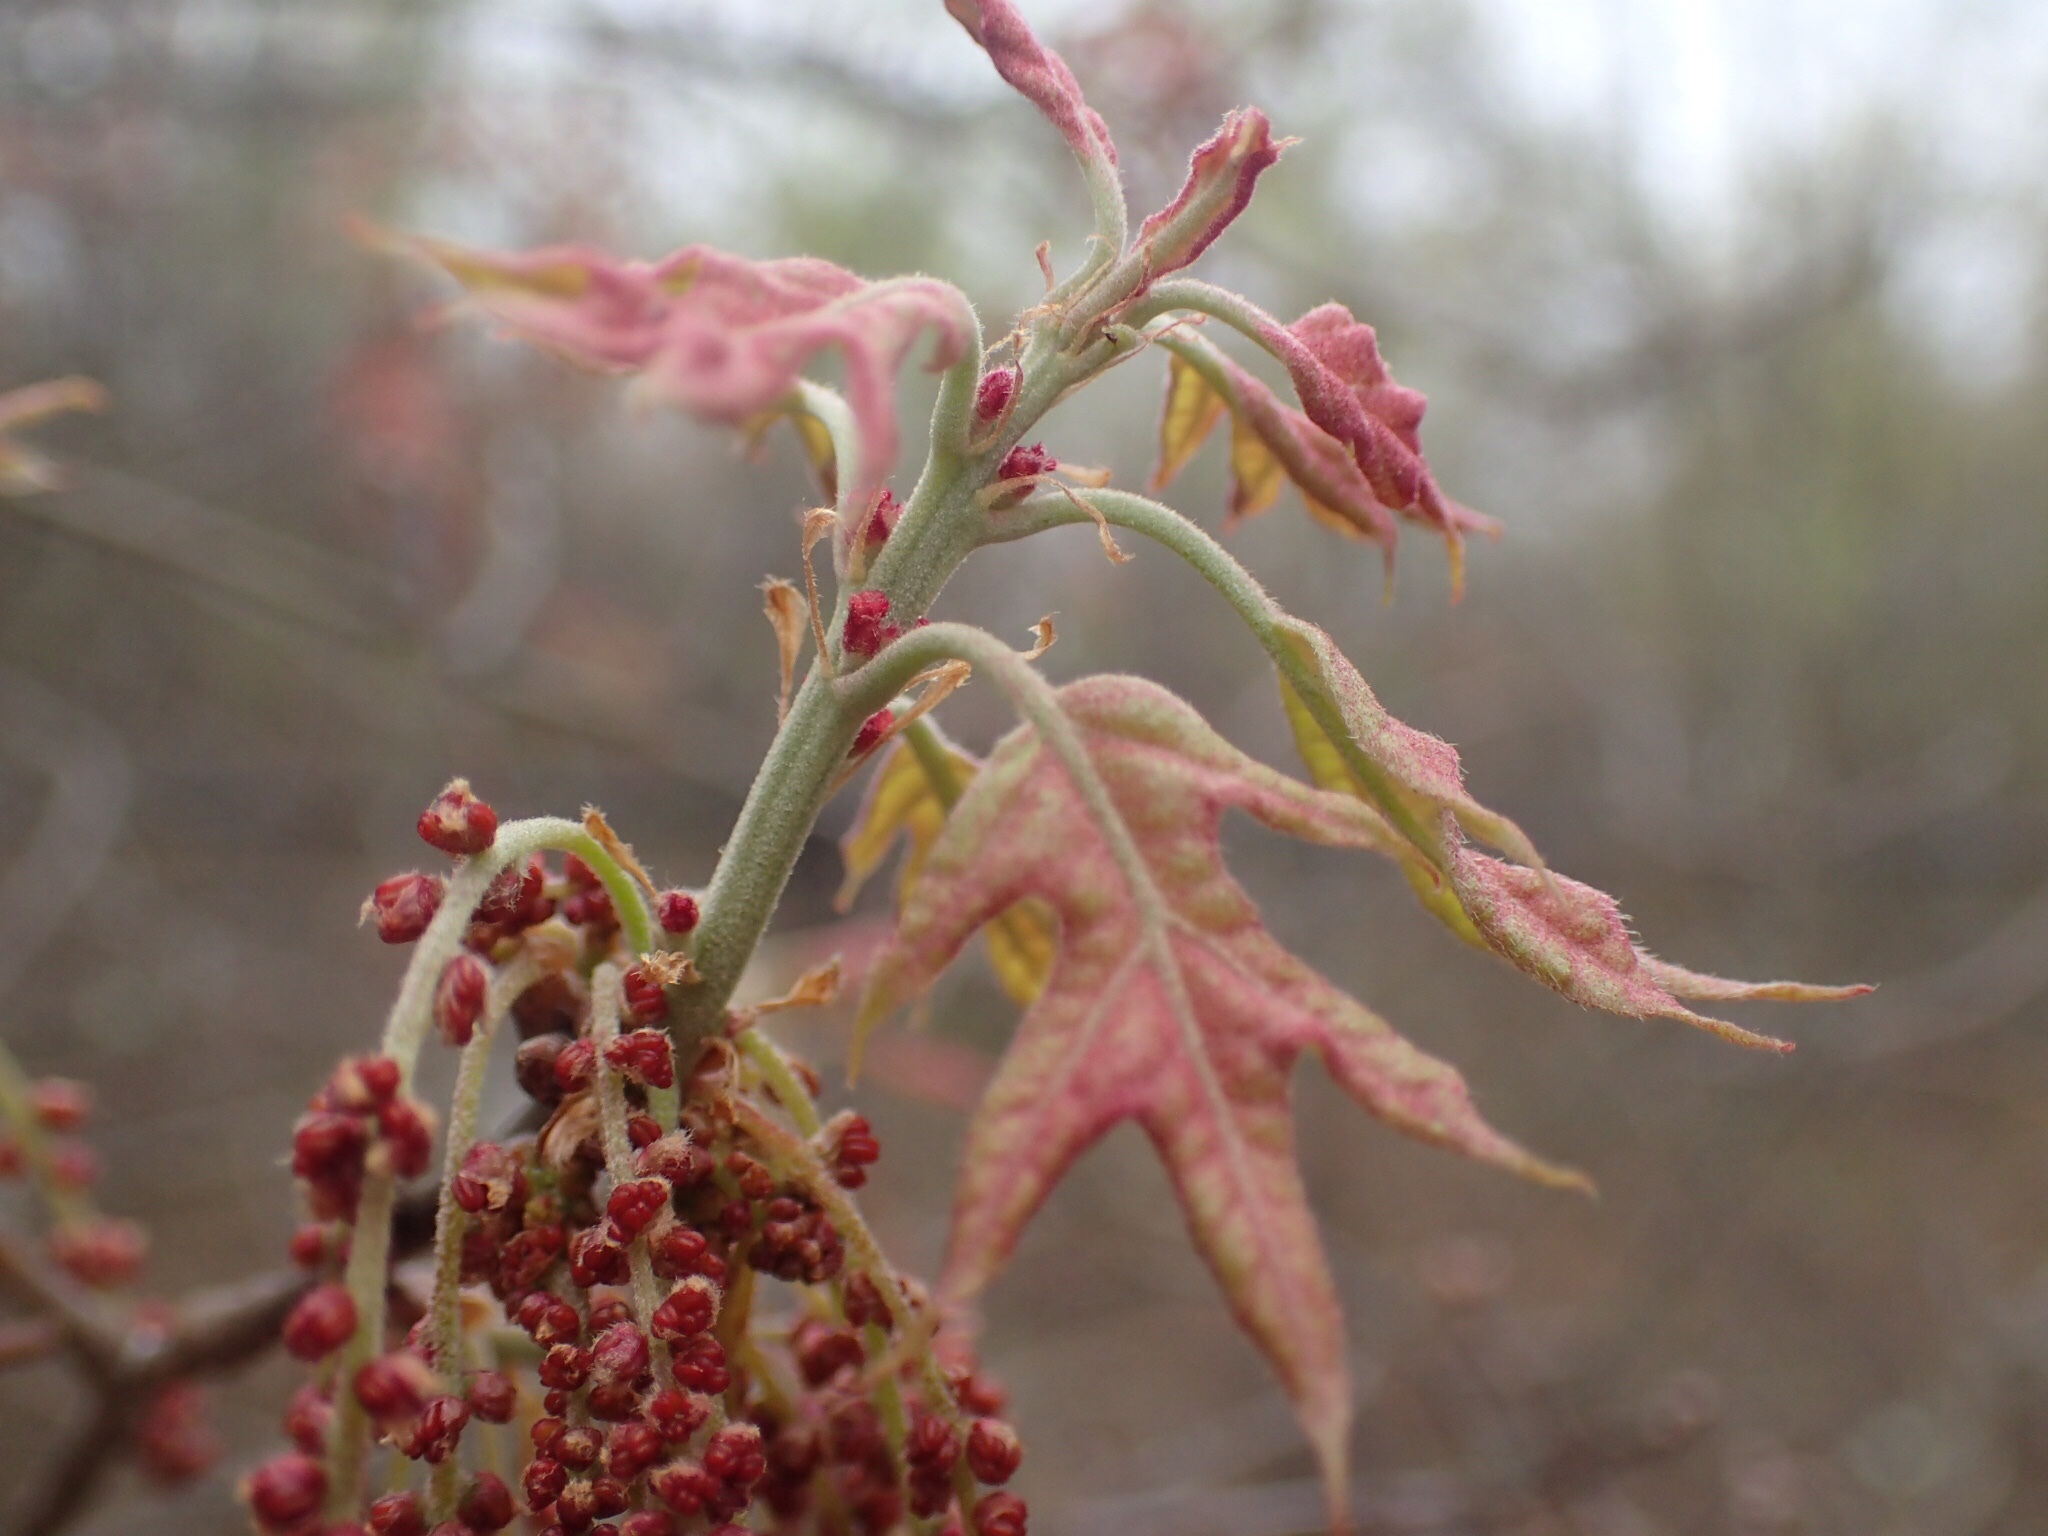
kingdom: Plantae
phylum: Tracheophyta
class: Magnoliopsida
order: Fagales
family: Fagaceae
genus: Quercus
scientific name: Quercus ilicifolia
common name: Bear oak
